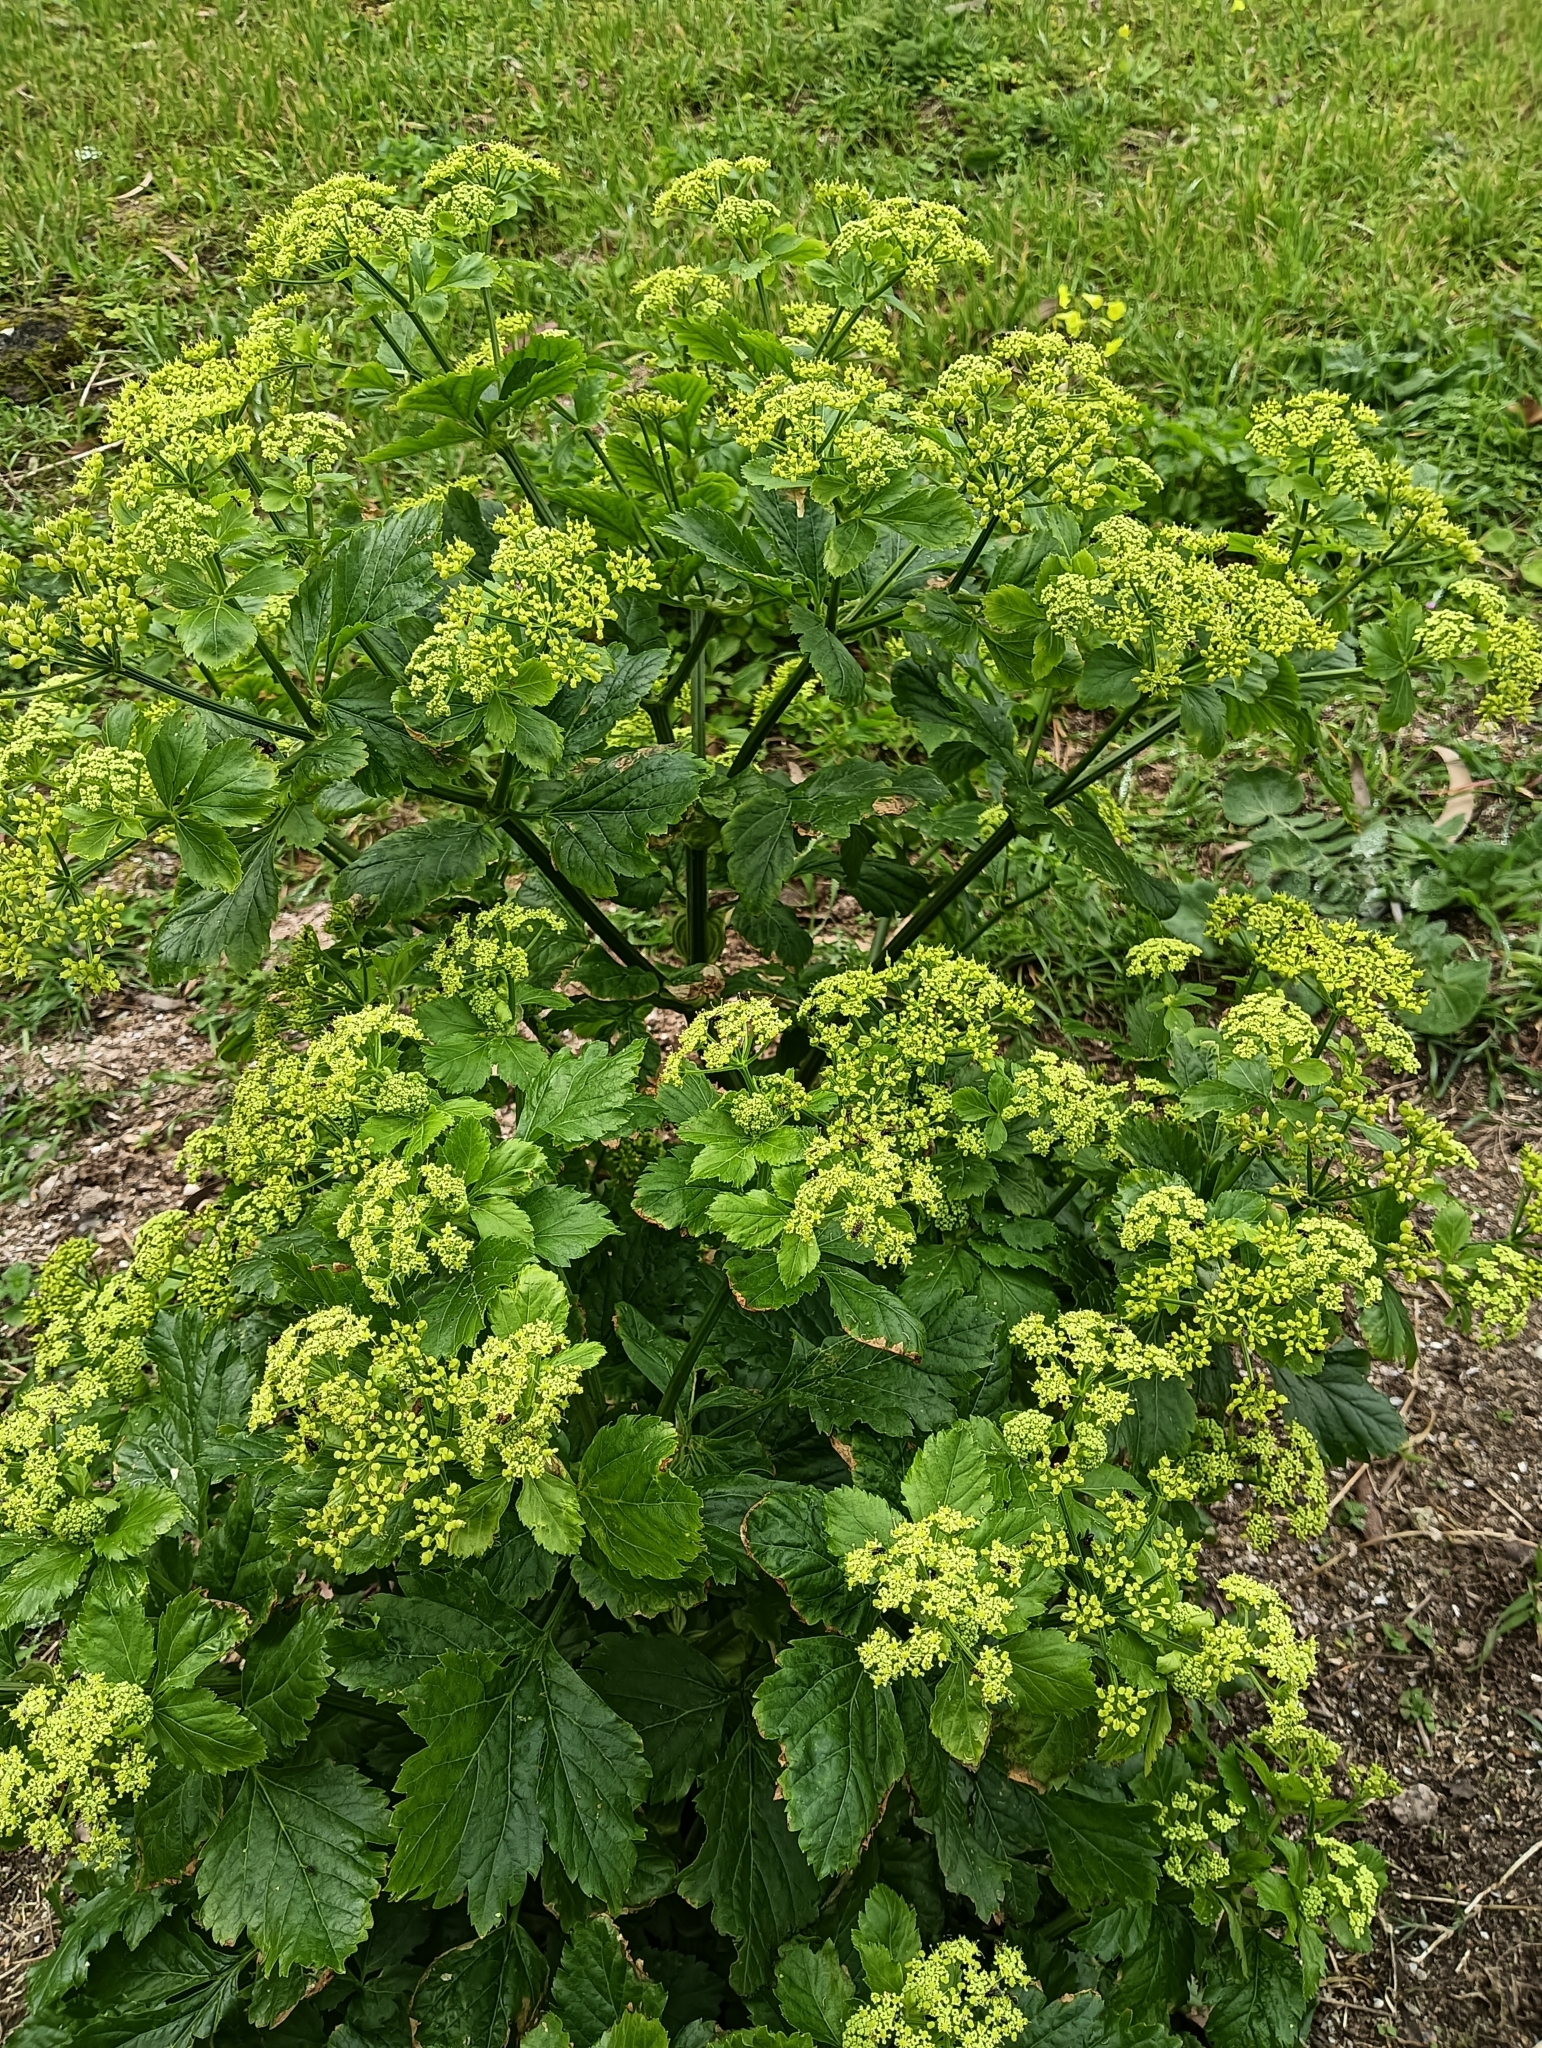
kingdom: Plantae
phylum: Tracheophyta
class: Magnoliopsida
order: Apiales
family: Apiaceae
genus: Smyrnium
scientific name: Smyrnium olusatrum
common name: Alexanders
